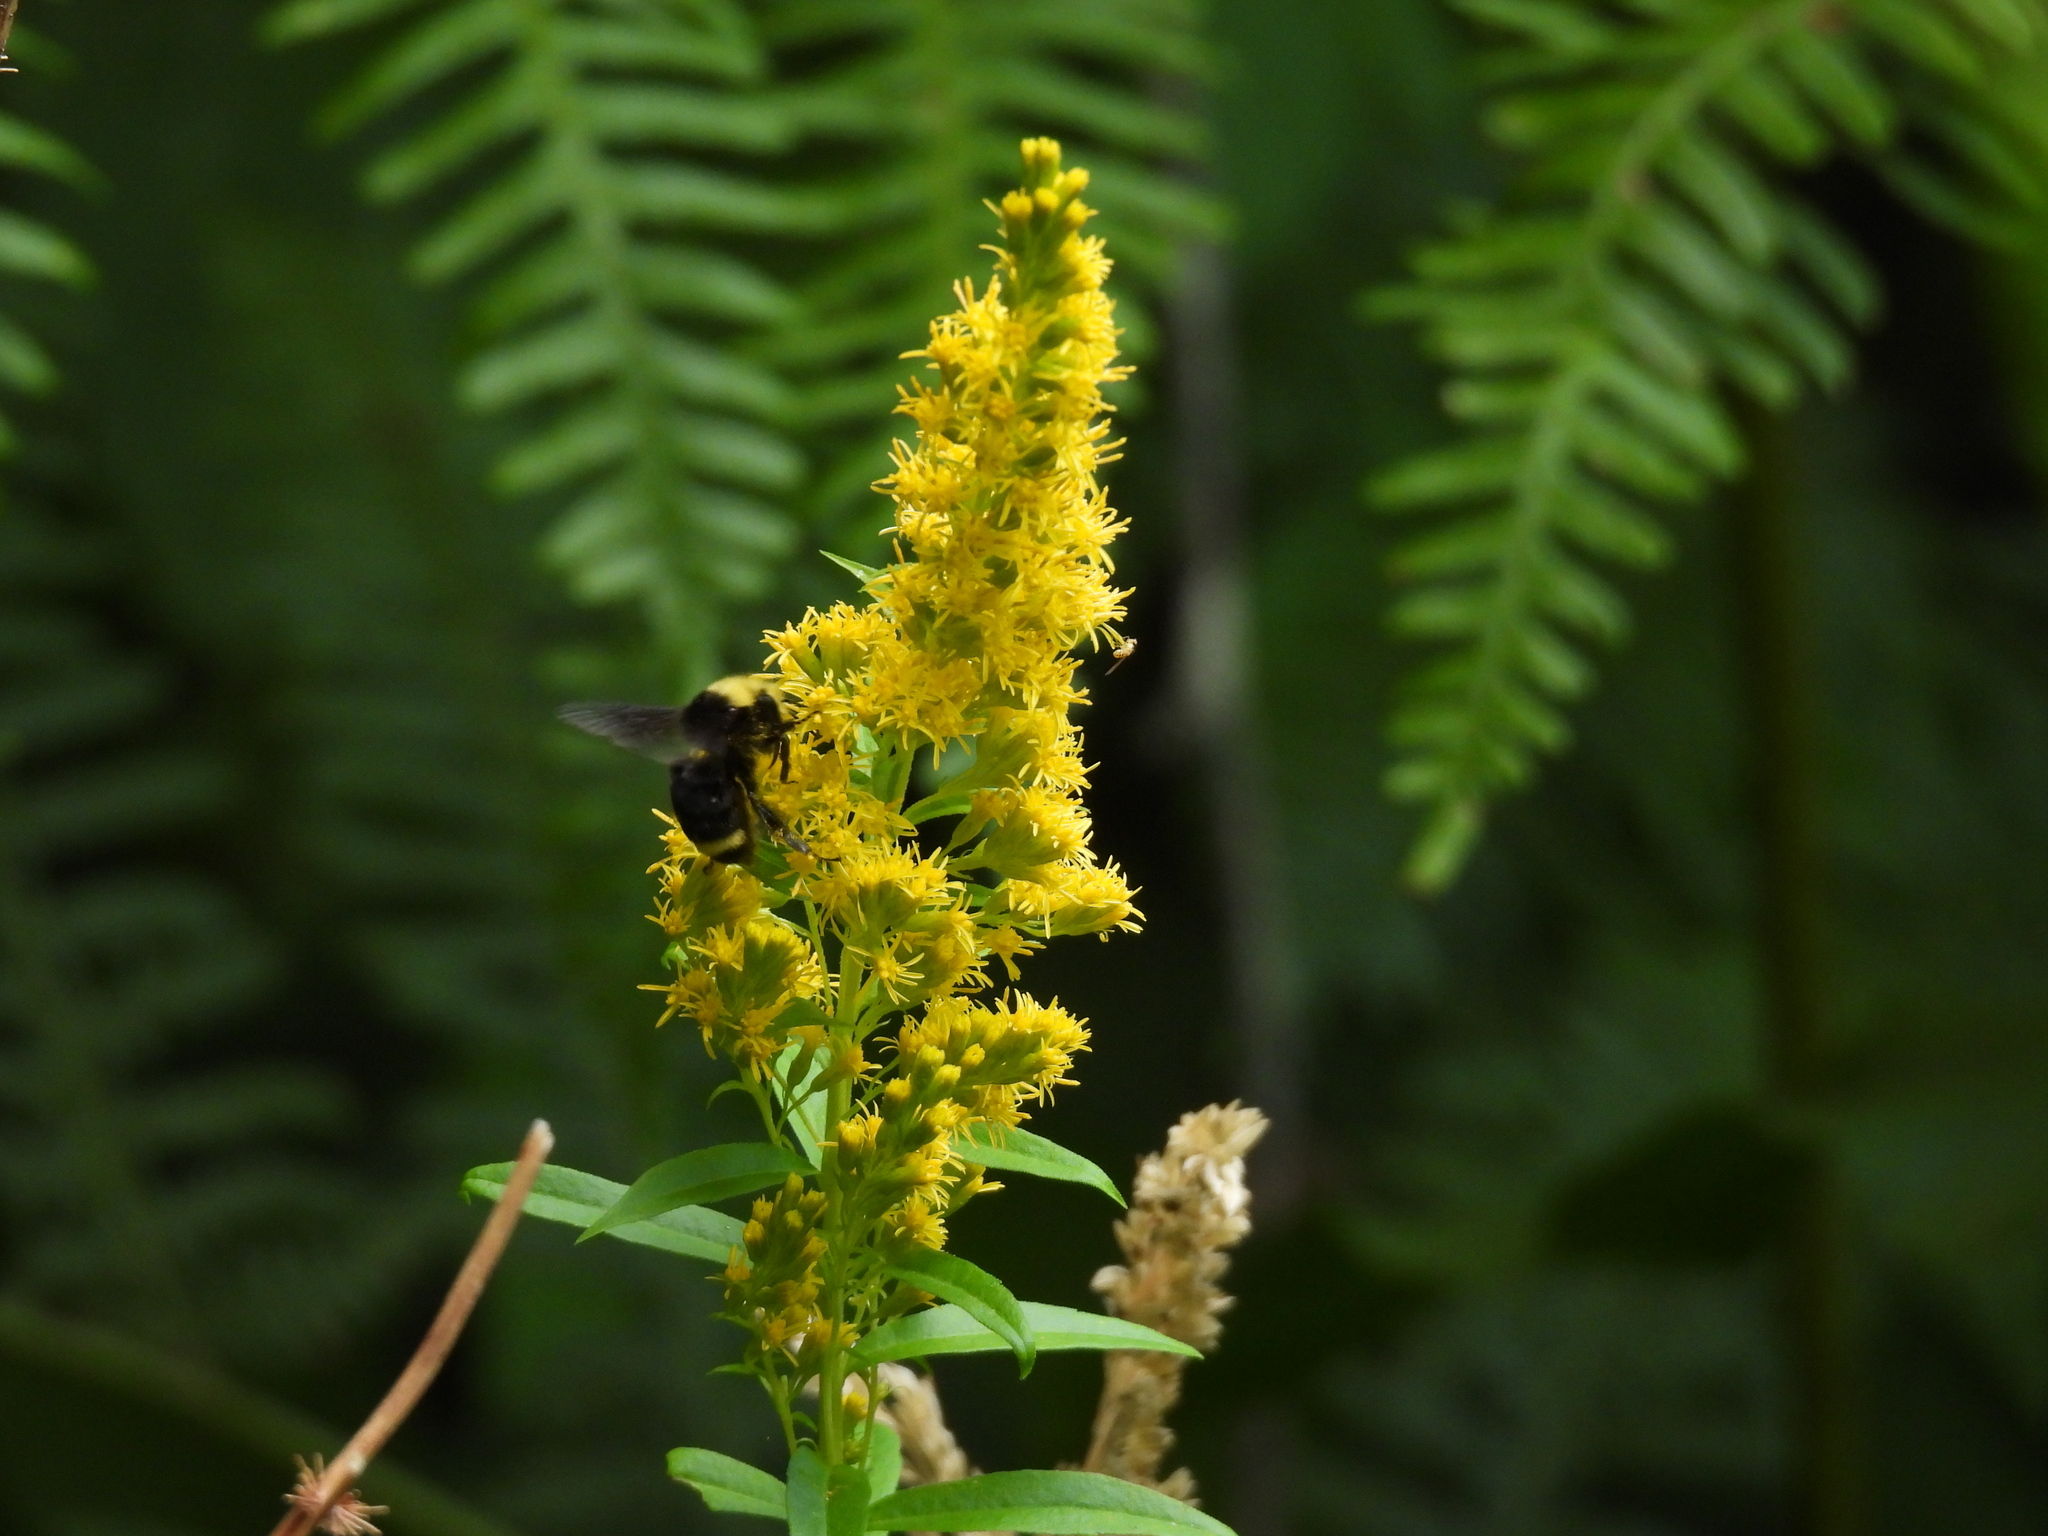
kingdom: Animalia
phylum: Arthropoda
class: Insecta
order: Hymenoptera
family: Apidae
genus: Bombus
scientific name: Bombus vosnesenskii
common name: Vosnesensky bumble bee
